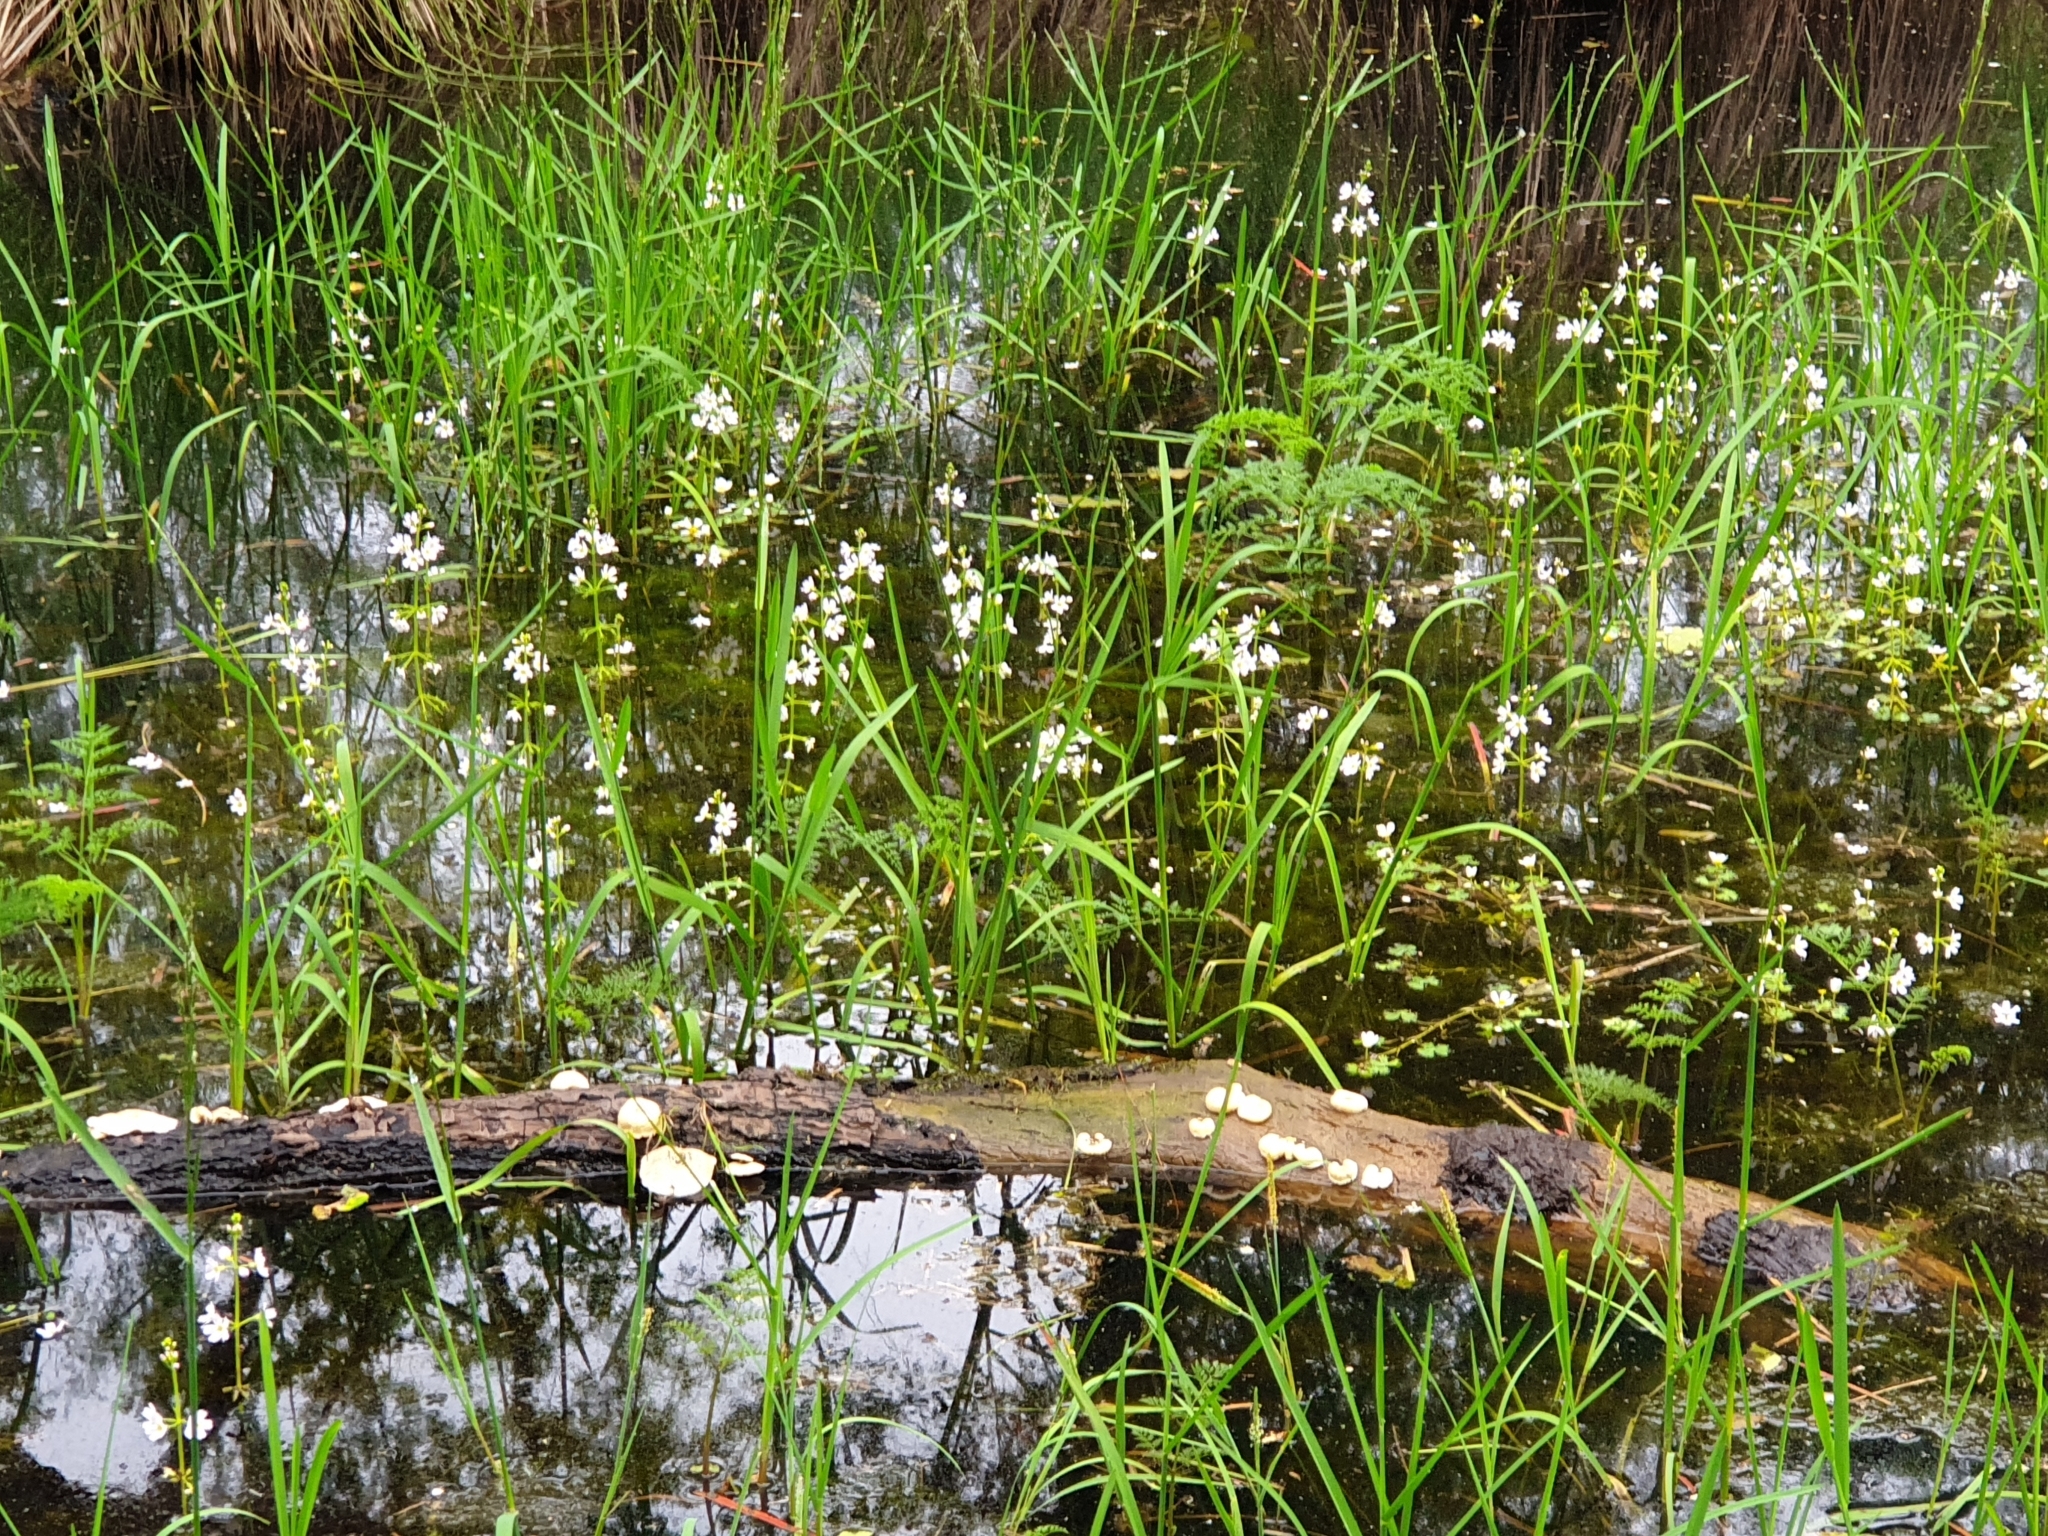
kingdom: Plantae
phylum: Tracheophyta
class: Magnoliopsida
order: Ericales
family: Primulaceae
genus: Hottonia
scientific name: Hottonia palustris
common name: Water-violet
